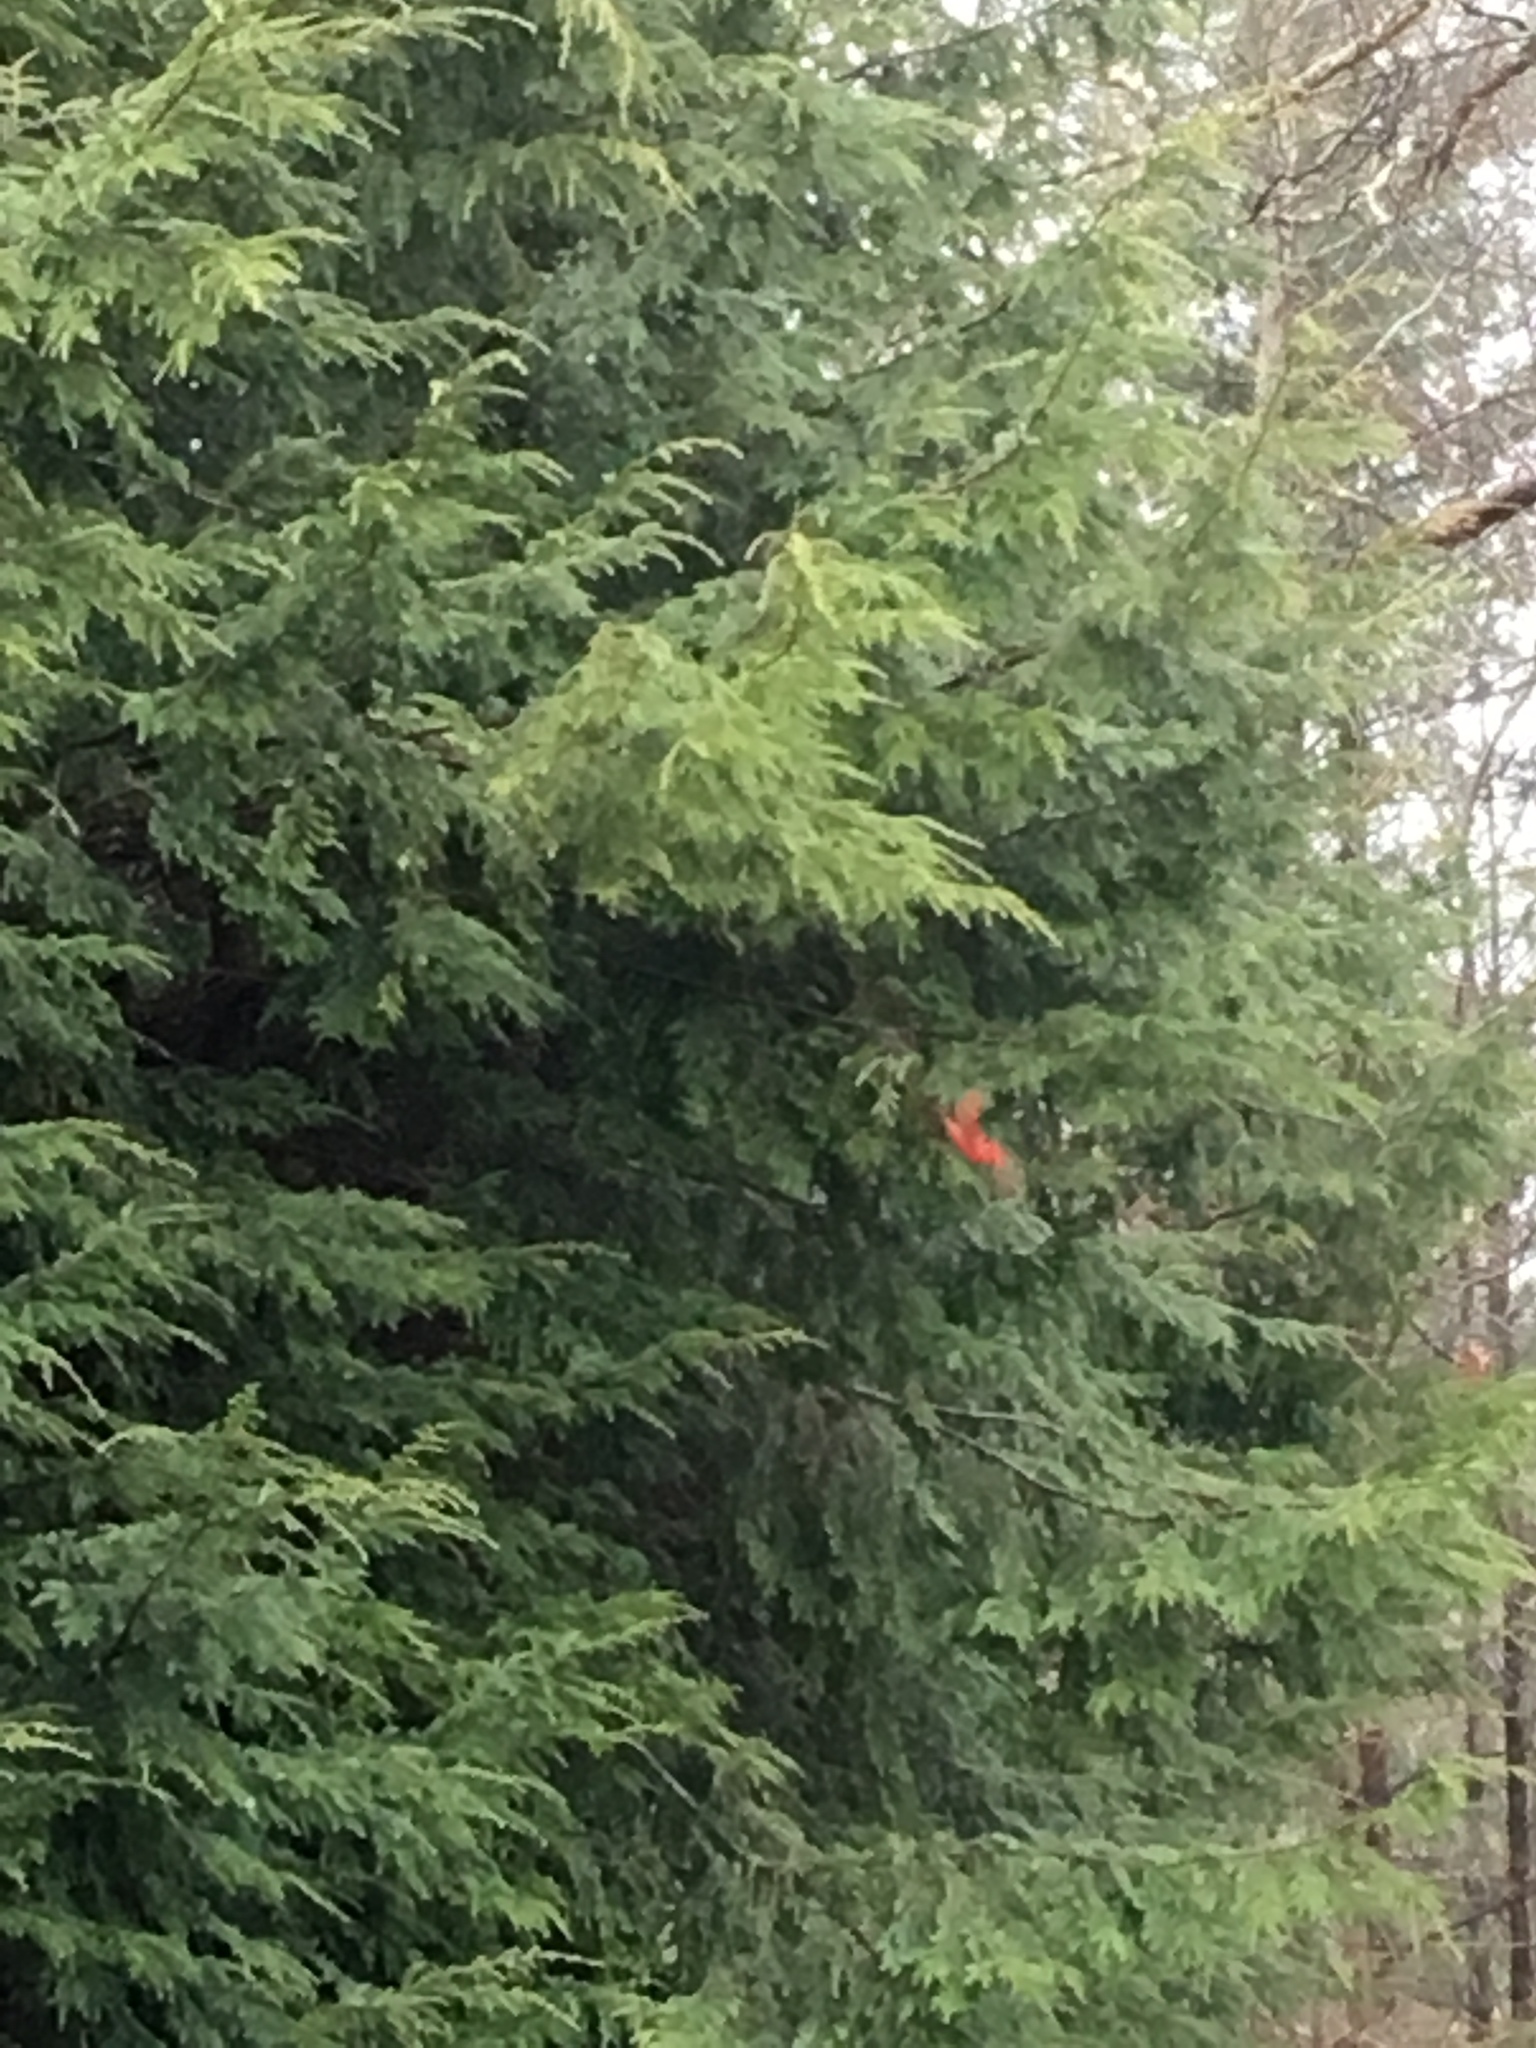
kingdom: Animalia
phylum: Chordata
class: Aves
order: Passeriformes
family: Cardinalidae
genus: Cardinalis
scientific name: Cardinalis cardinalis
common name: Northern cardinal
